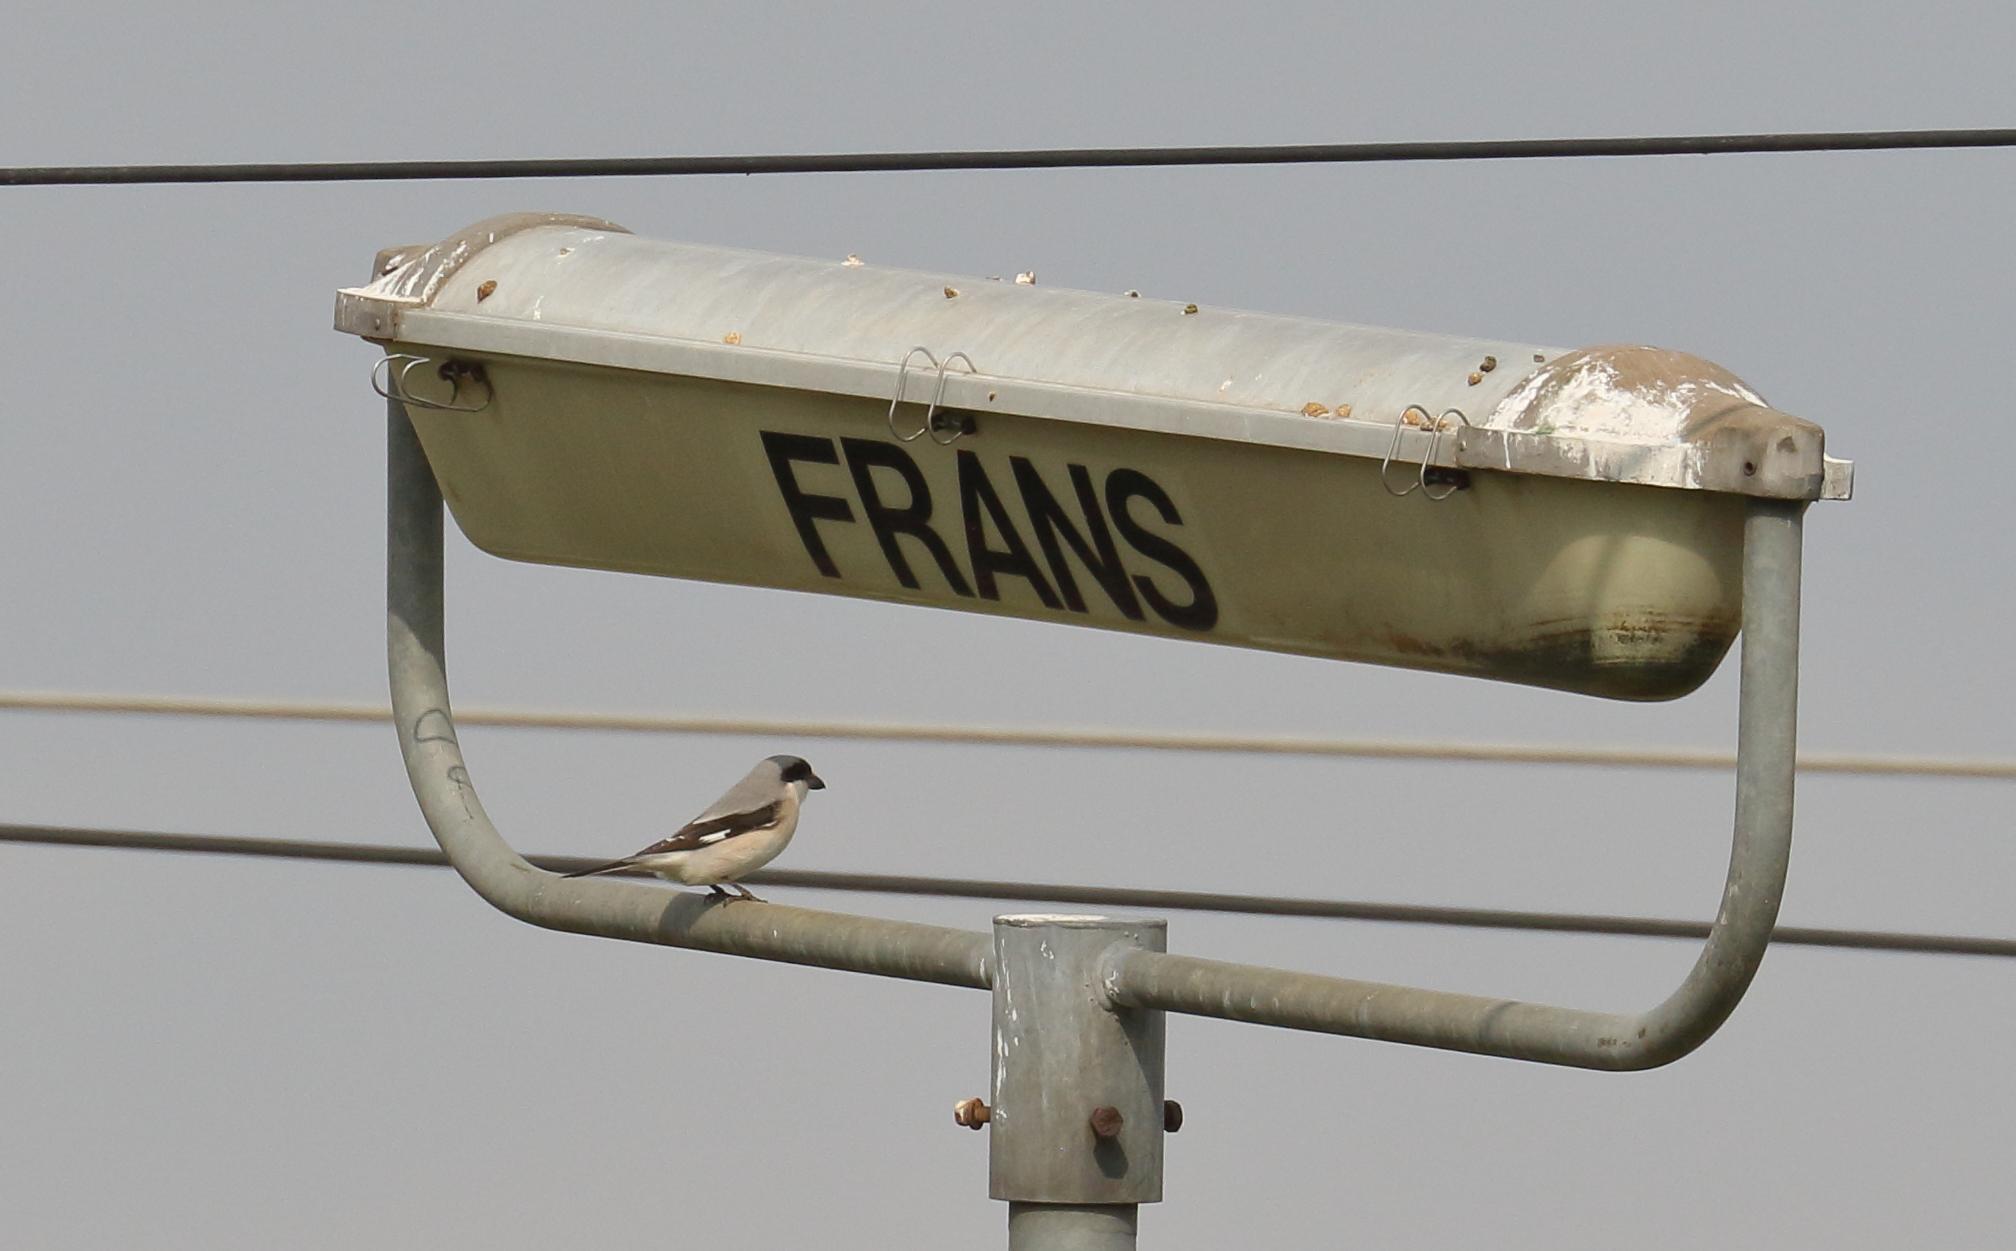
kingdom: Animalia
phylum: Chordata
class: Aves
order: Passeriformes
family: Laniidae
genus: Lanius
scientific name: Lanius minor
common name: Lesser grey shrike
